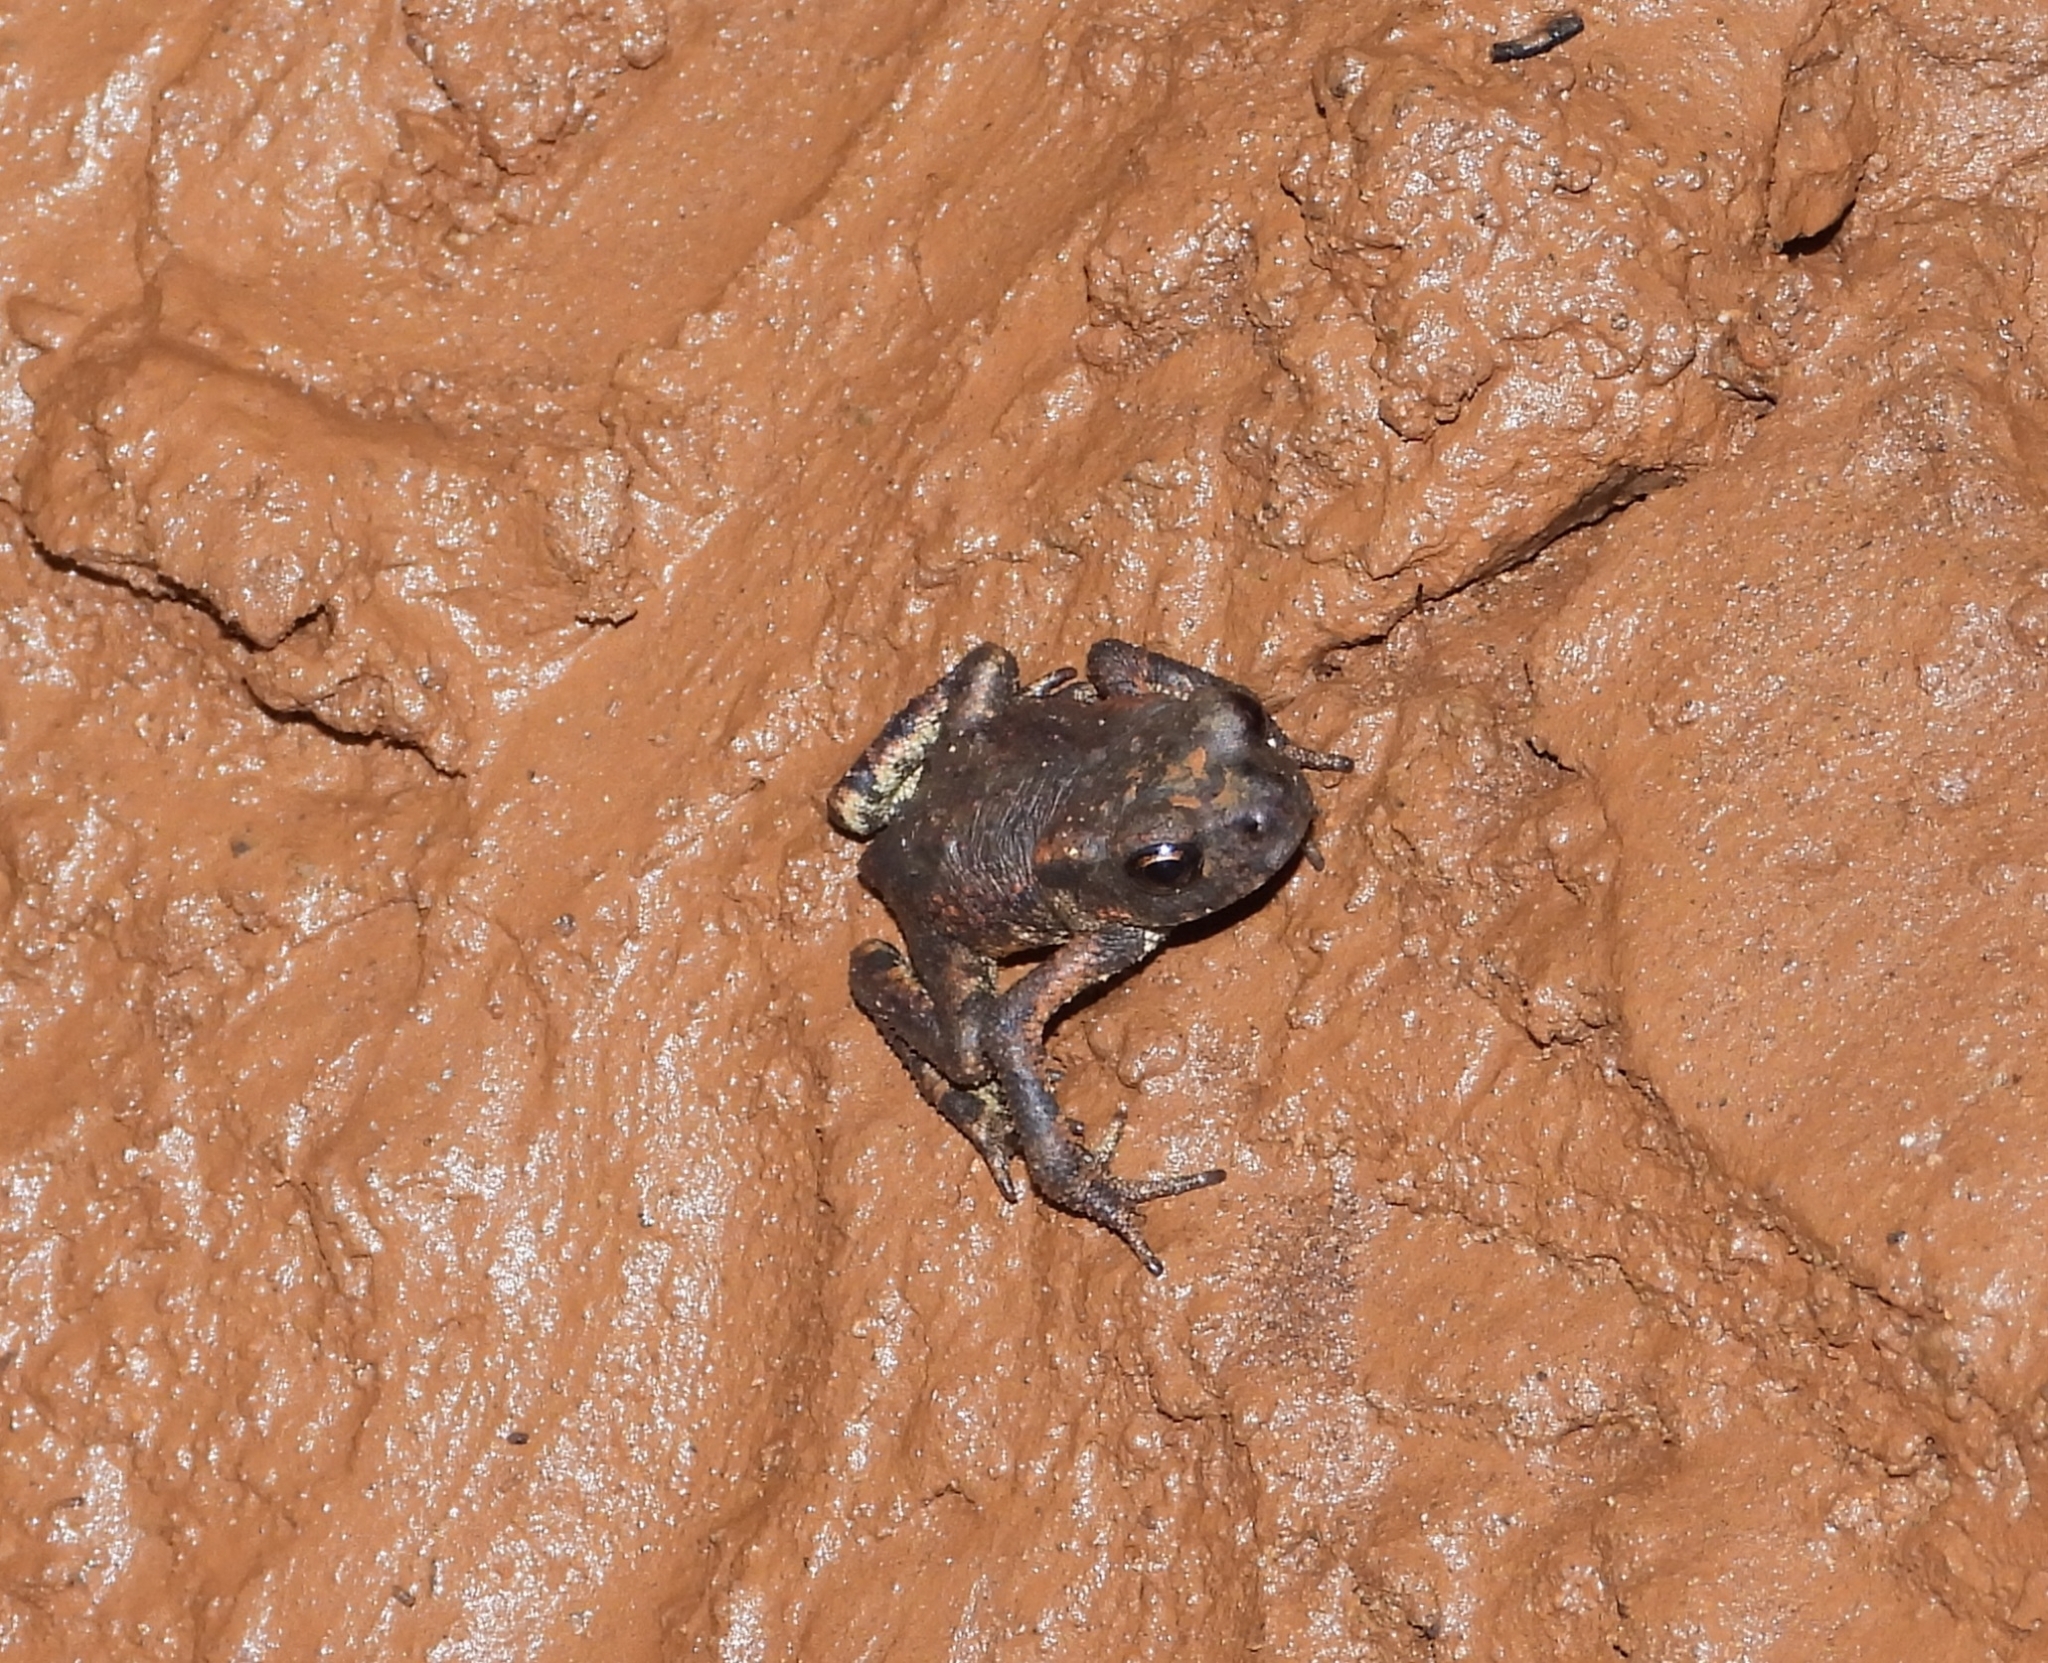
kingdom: Animalia
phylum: Chordata
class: Amphibia
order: Anura
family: Bufonidae
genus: Bufo
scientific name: Bufo bufo
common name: Common toad
